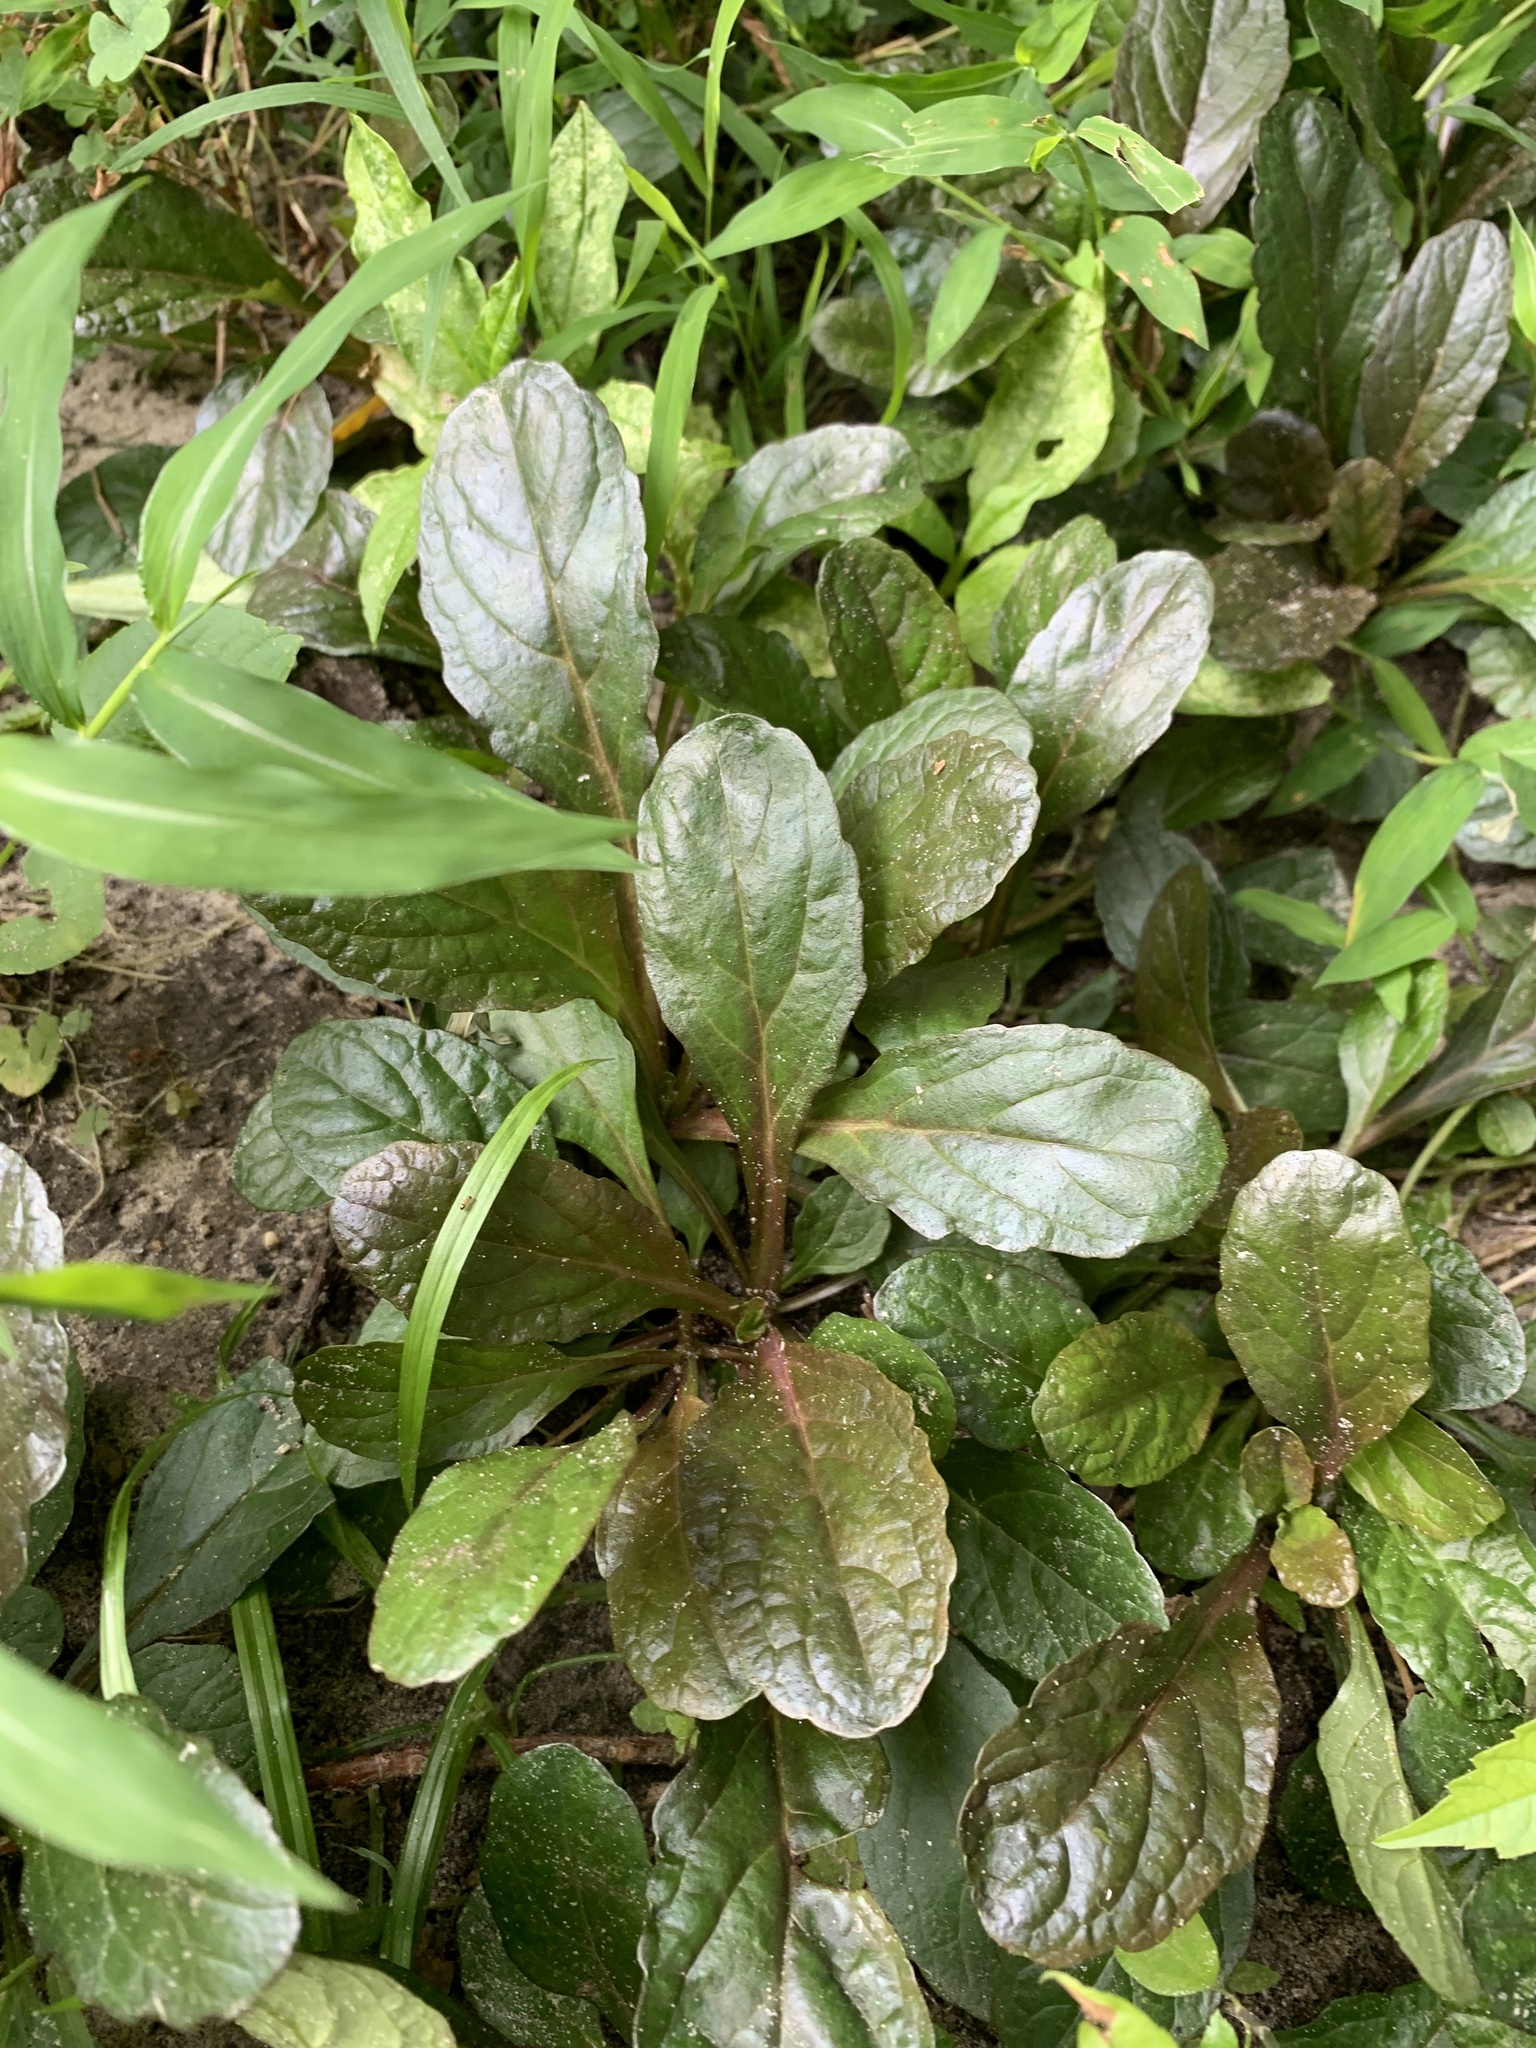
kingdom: Plantae
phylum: Tracheophyta
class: Magnoliopsida
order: Lamiales
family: Lamiaceae
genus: Ajuga
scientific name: Ajuga reptans
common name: Bugle
